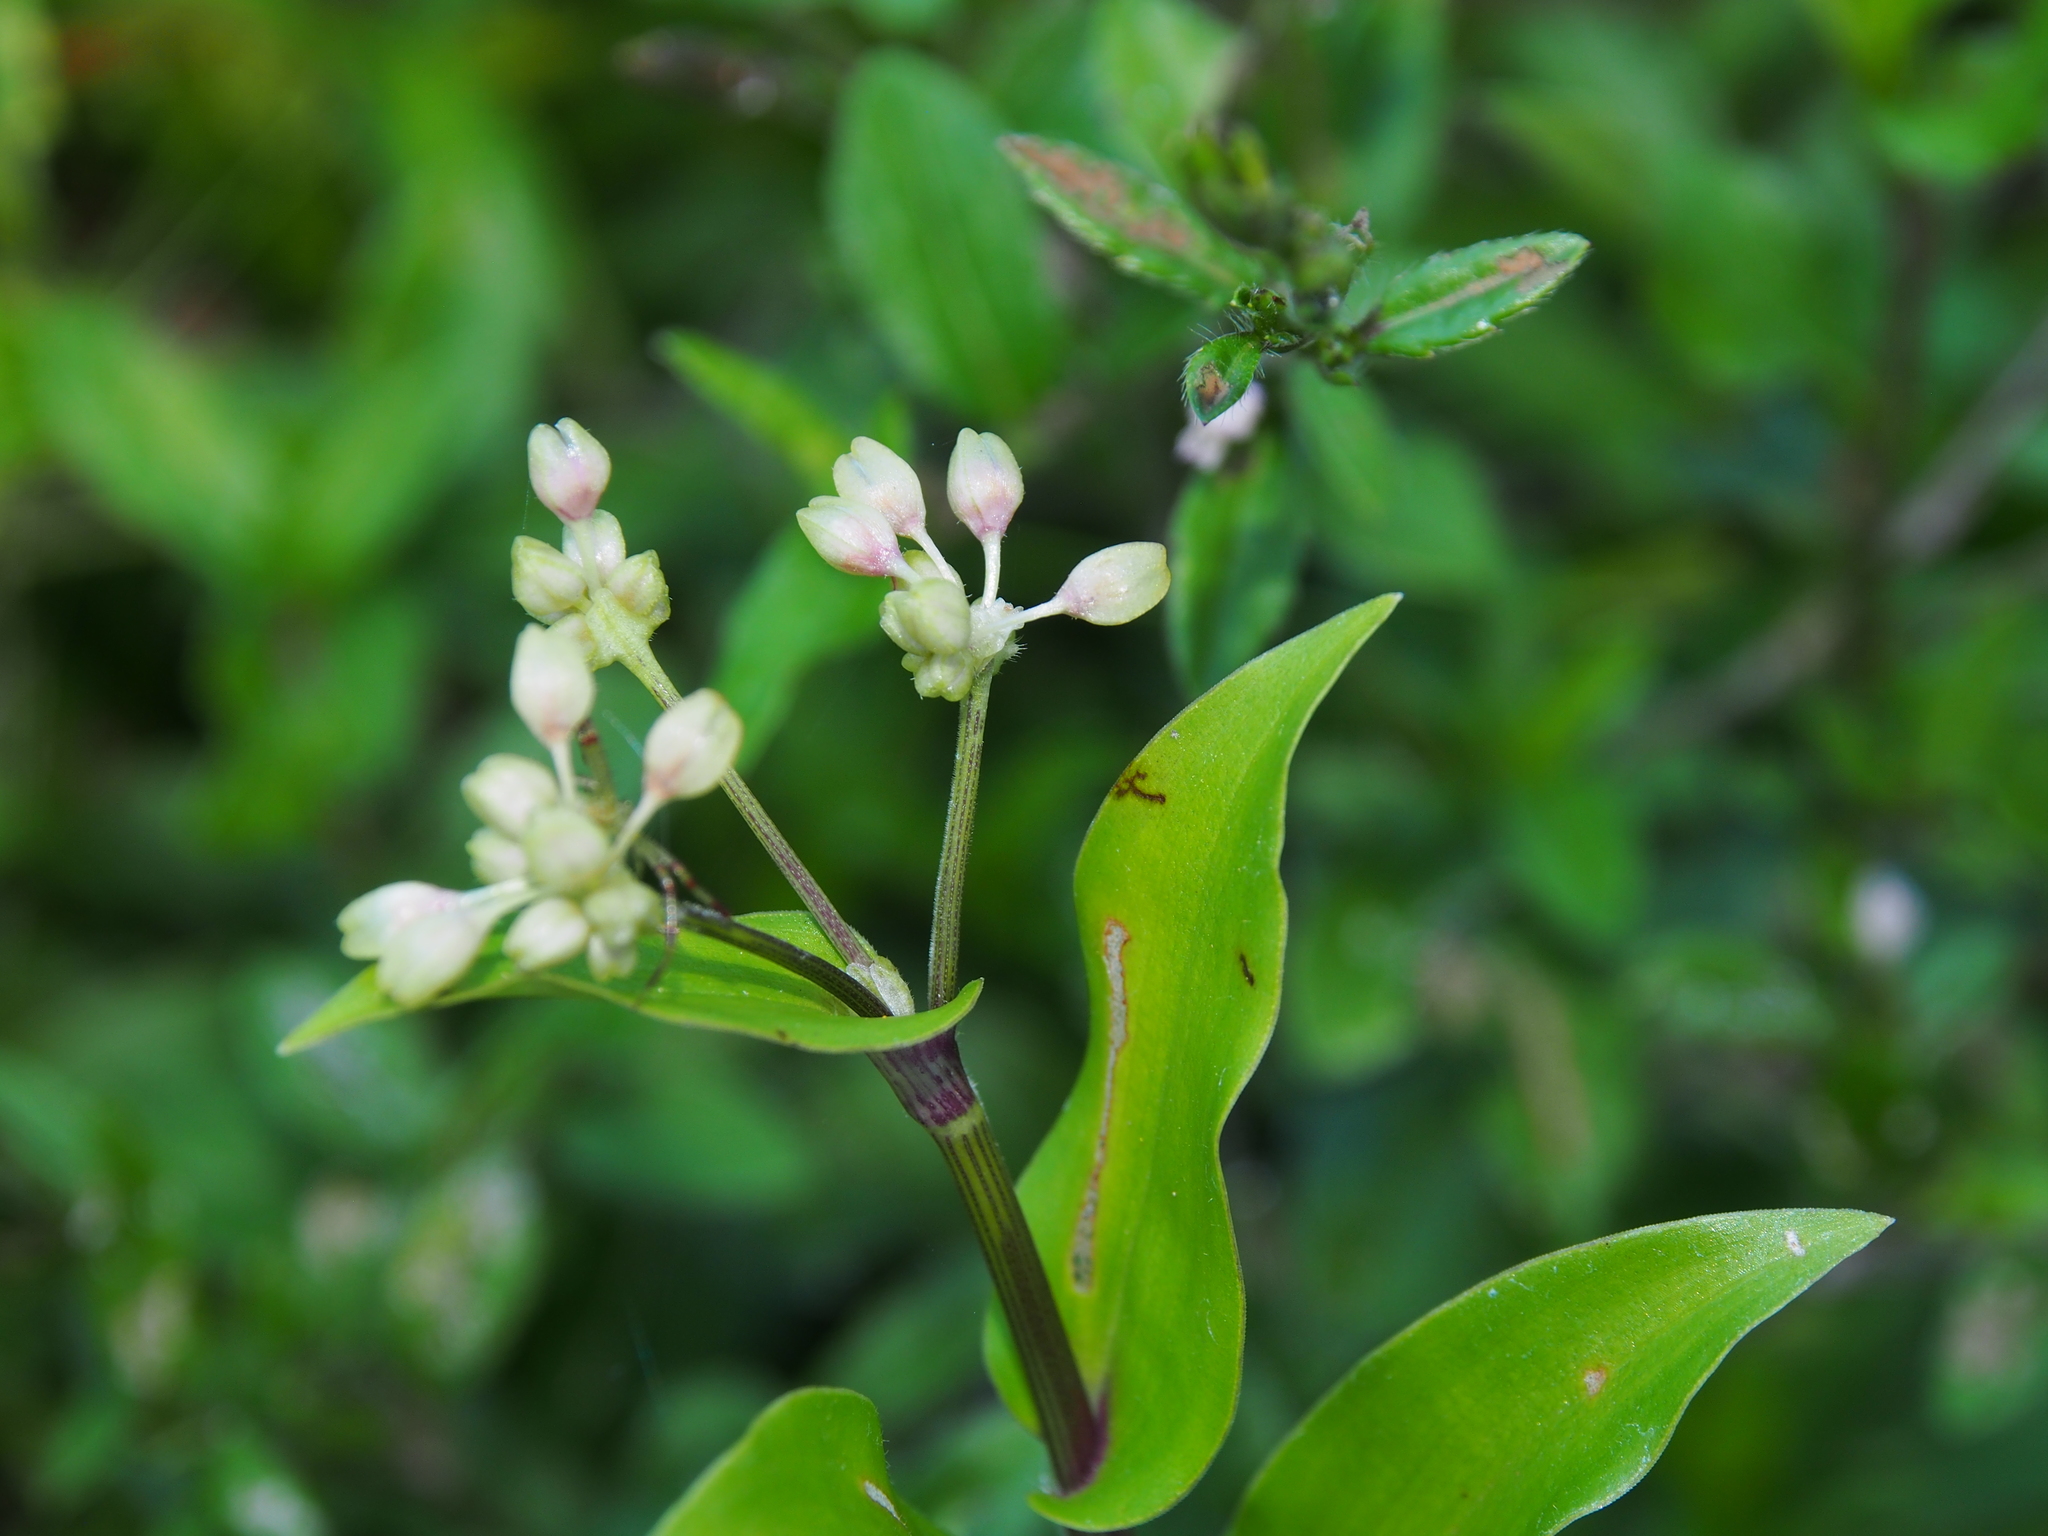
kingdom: Plantae
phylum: Tracheophyta
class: Liliopsida
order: Commelinales
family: Commelinaceae
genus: Callisia
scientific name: Callisia serrulata
